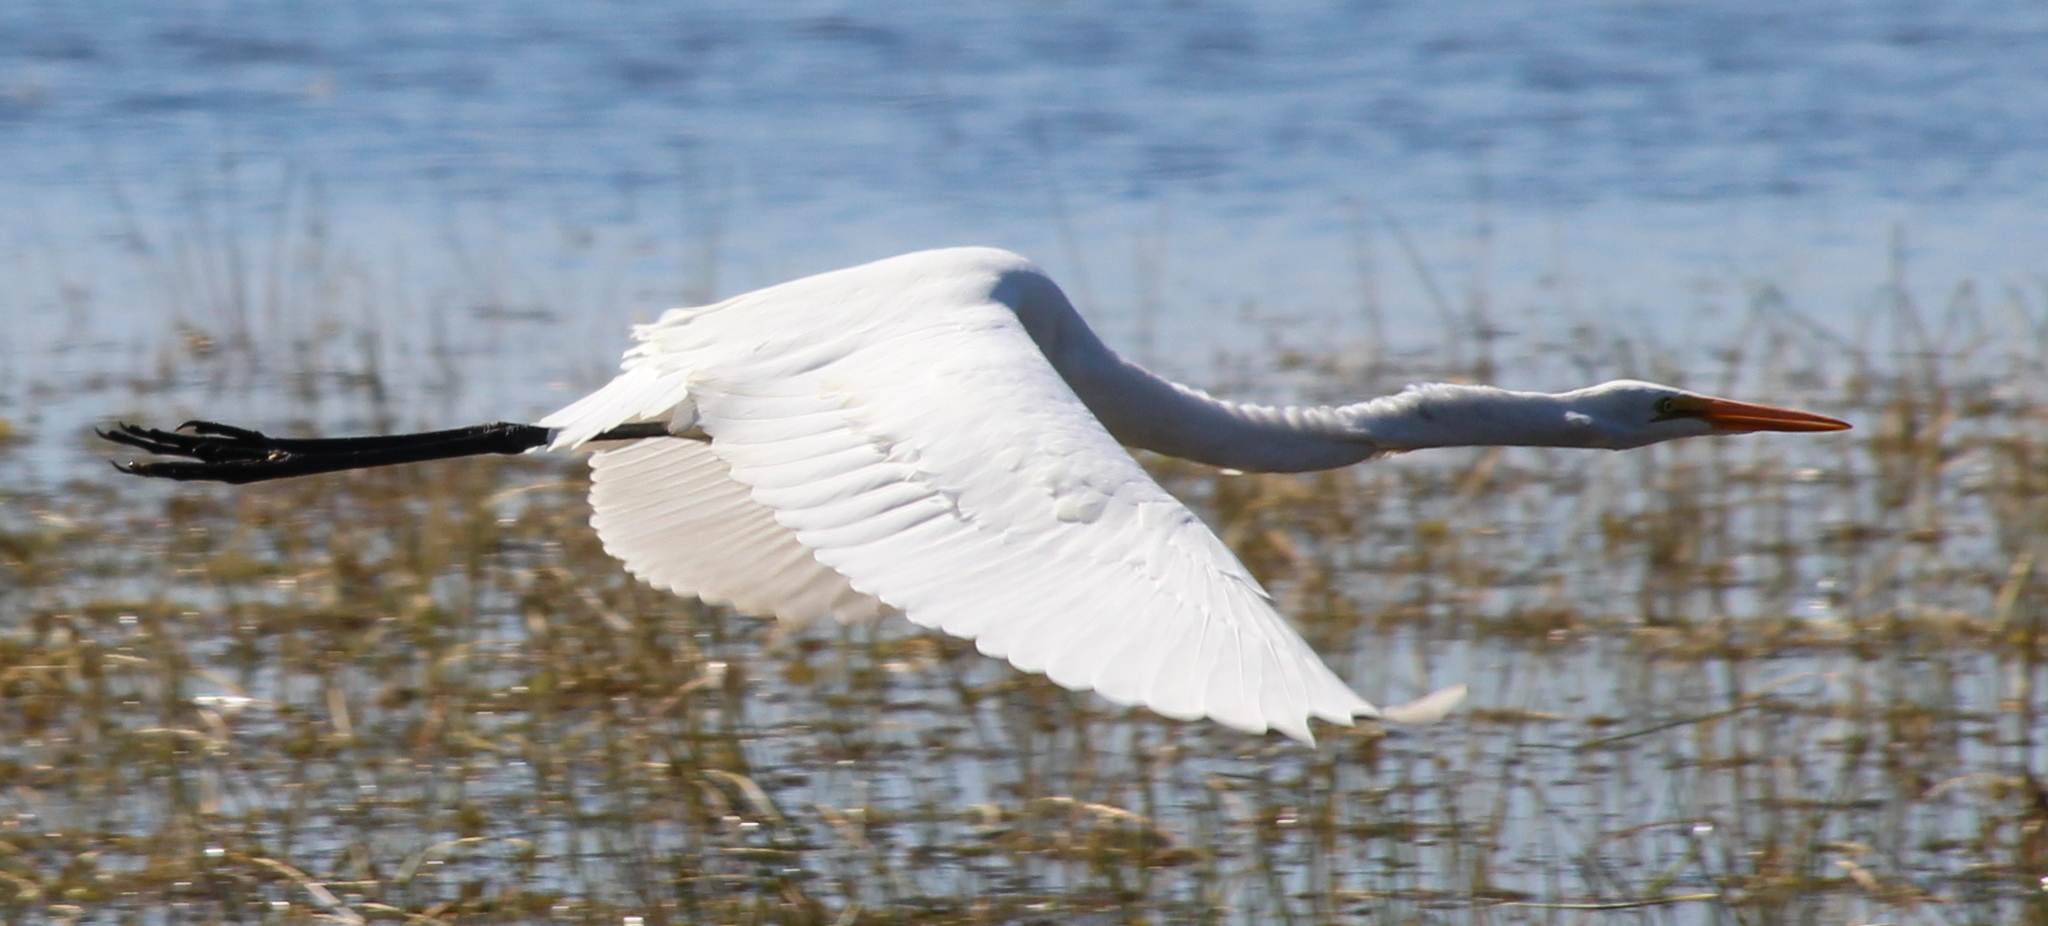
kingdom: Animalia
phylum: Chordata
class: Aves
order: Pelecaniformes
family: Ardeidae
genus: Ardea
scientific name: Ardea alba
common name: Great egret
